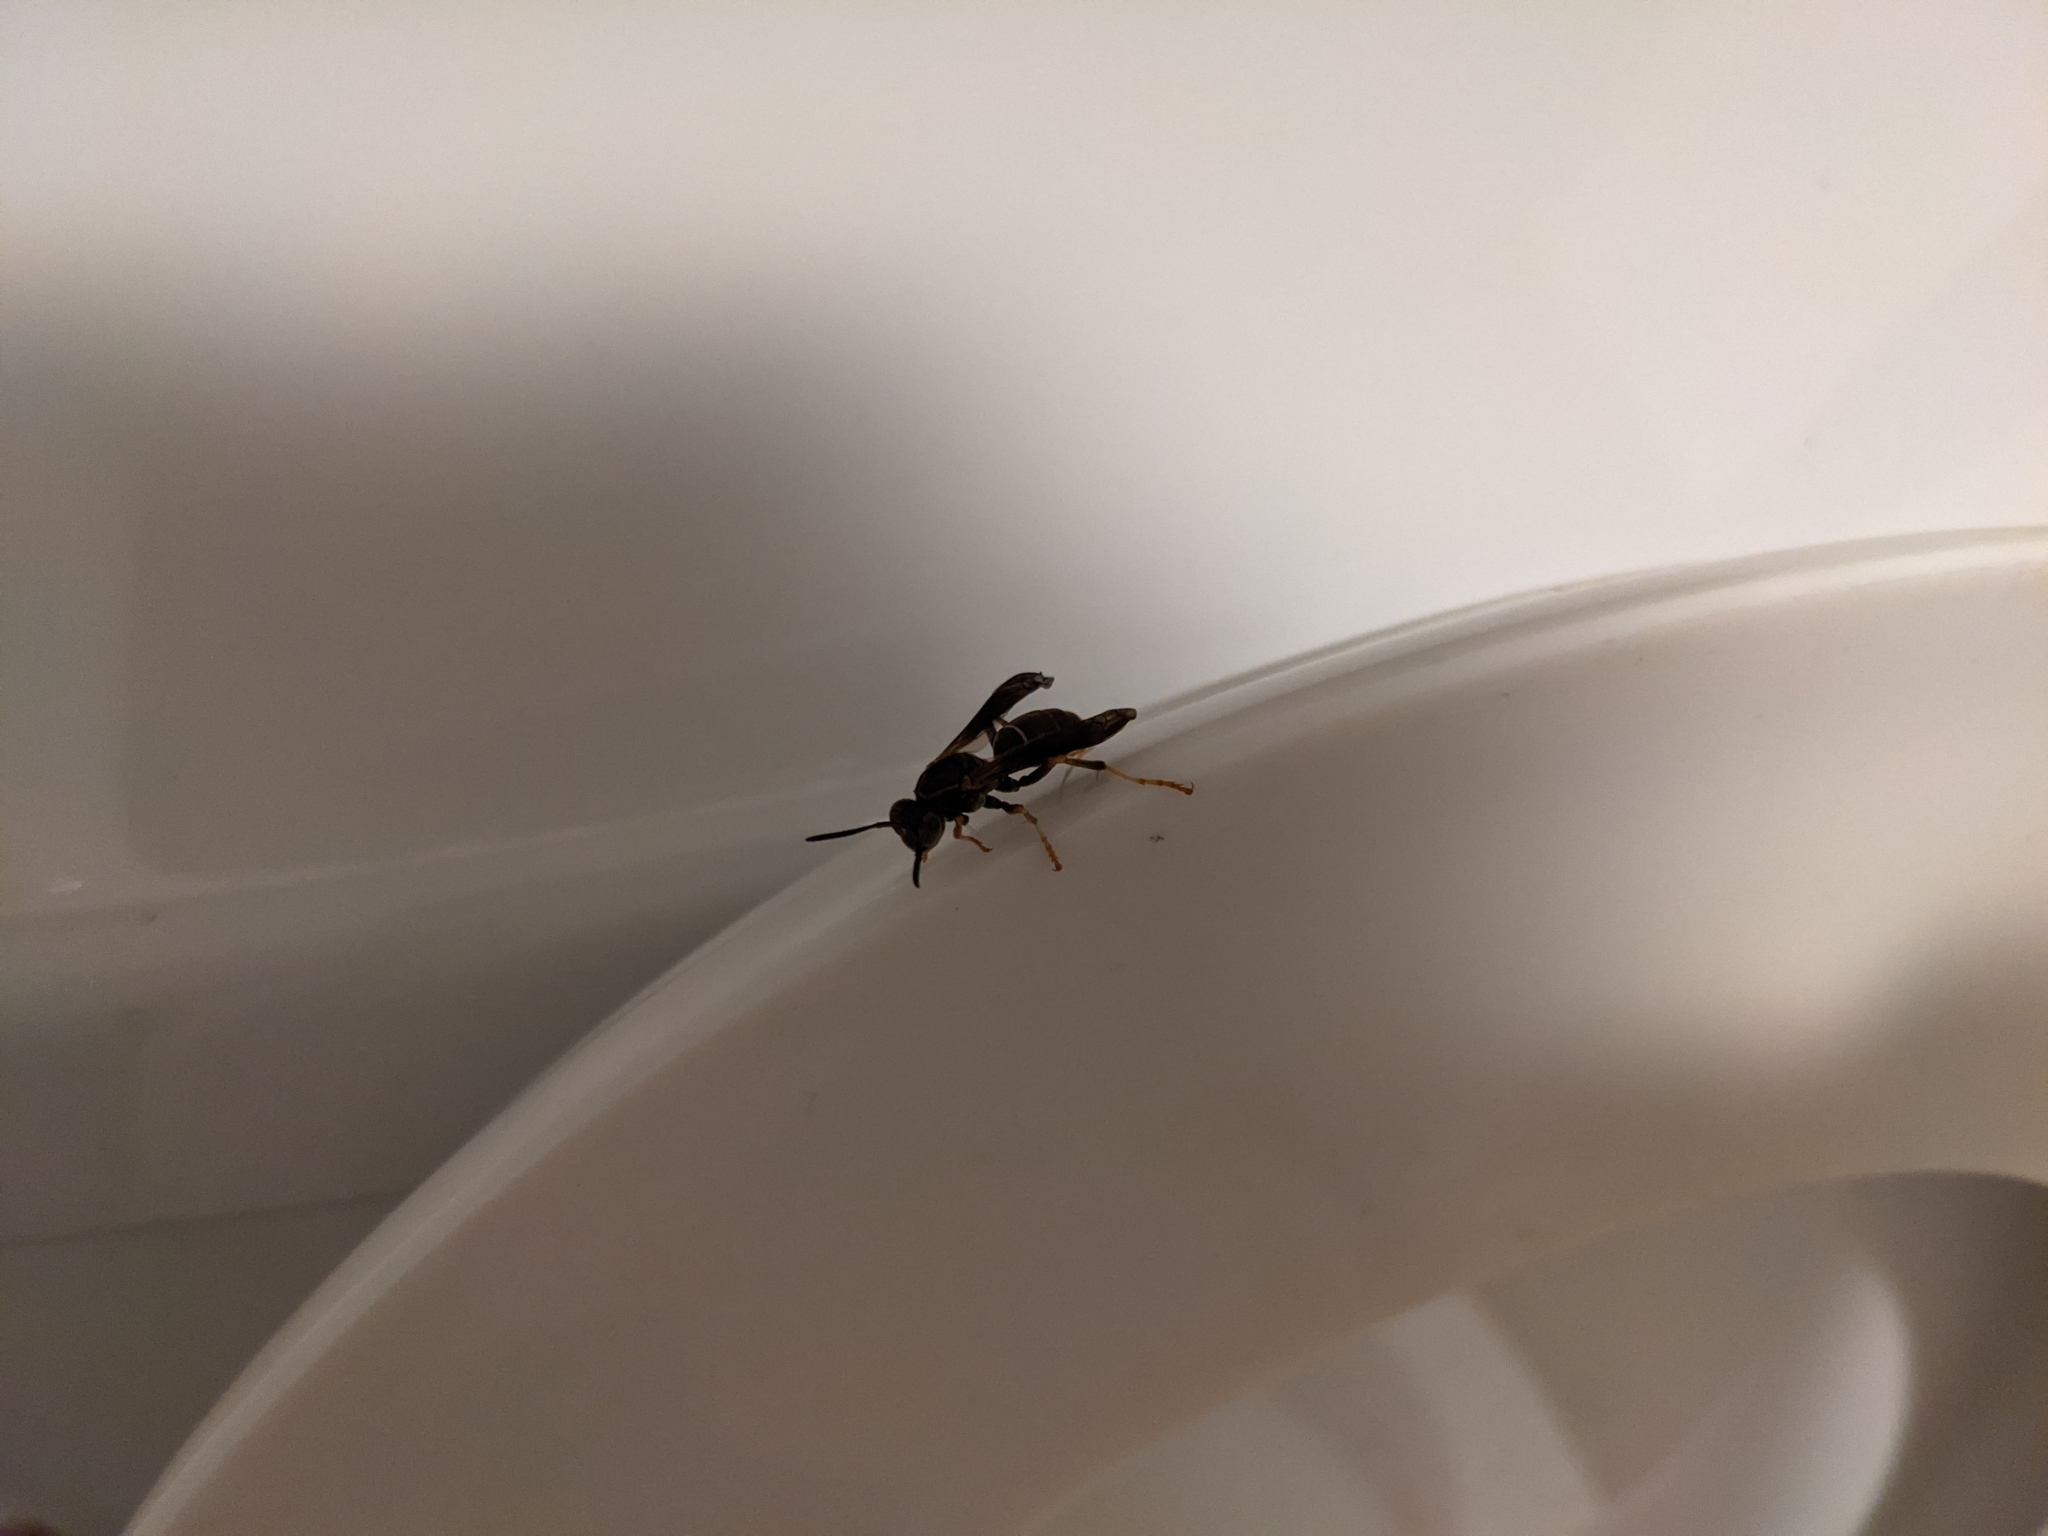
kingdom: Animalia
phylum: Arthropoda
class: Insecta
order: Hymenoptera
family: Eumenidae
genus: Polistes
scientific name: Polistes fuscatus
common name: Dark paper wasp
